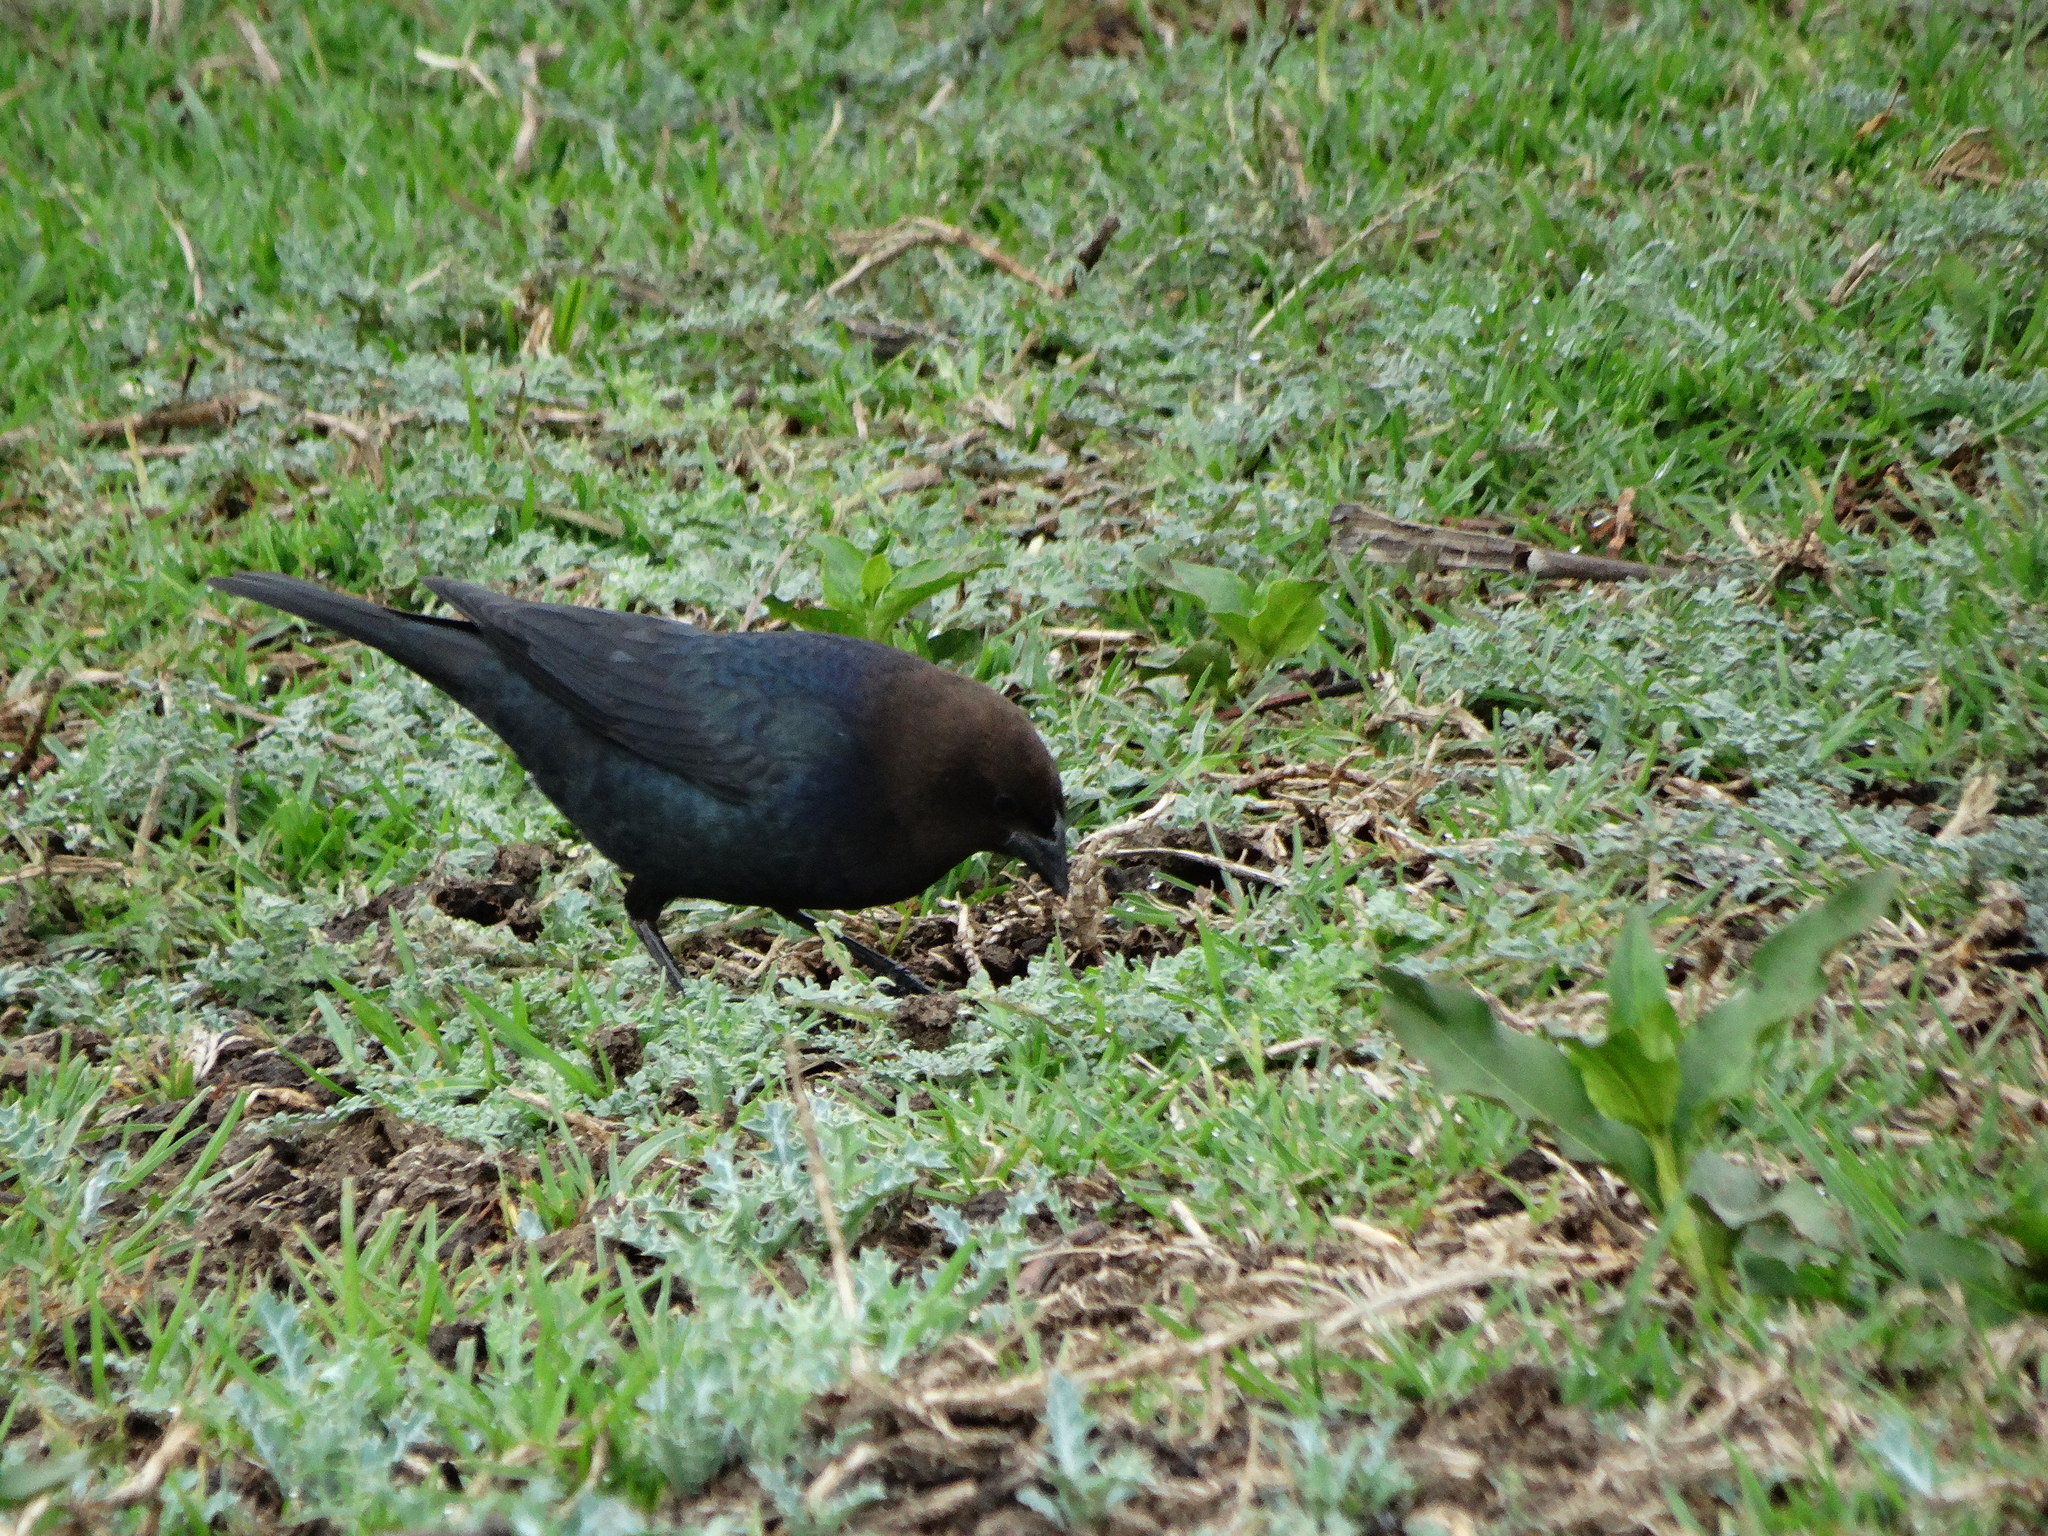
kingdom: Animalia
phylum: Chordata
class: Aves
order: Passeriformes
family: Icteridae
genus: Molothrus
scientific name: Molothrus ater
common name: Brown-headed cowbird
